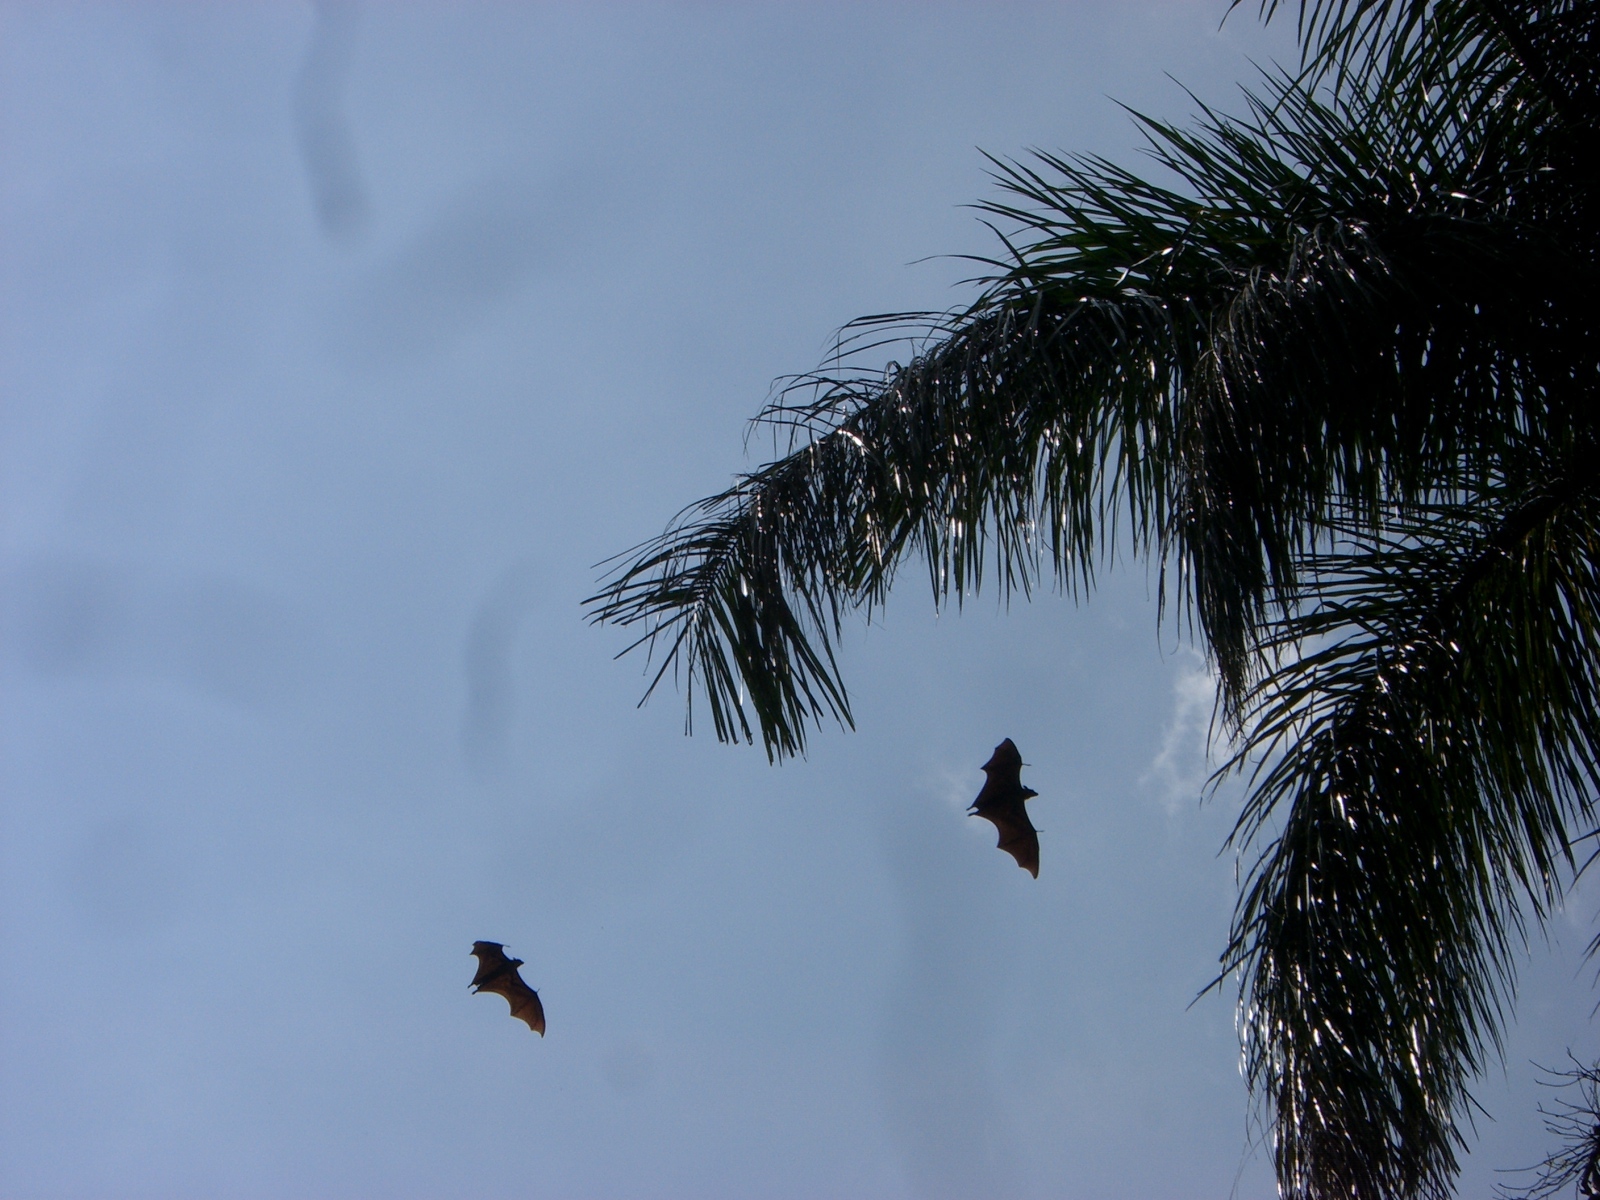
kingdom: Animalia
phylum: Chordata
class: Mammalia
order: Chiroptera
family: Pteropodidae
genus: Pteropus
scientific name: Pteropus vampyrus
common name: Large flying fox
